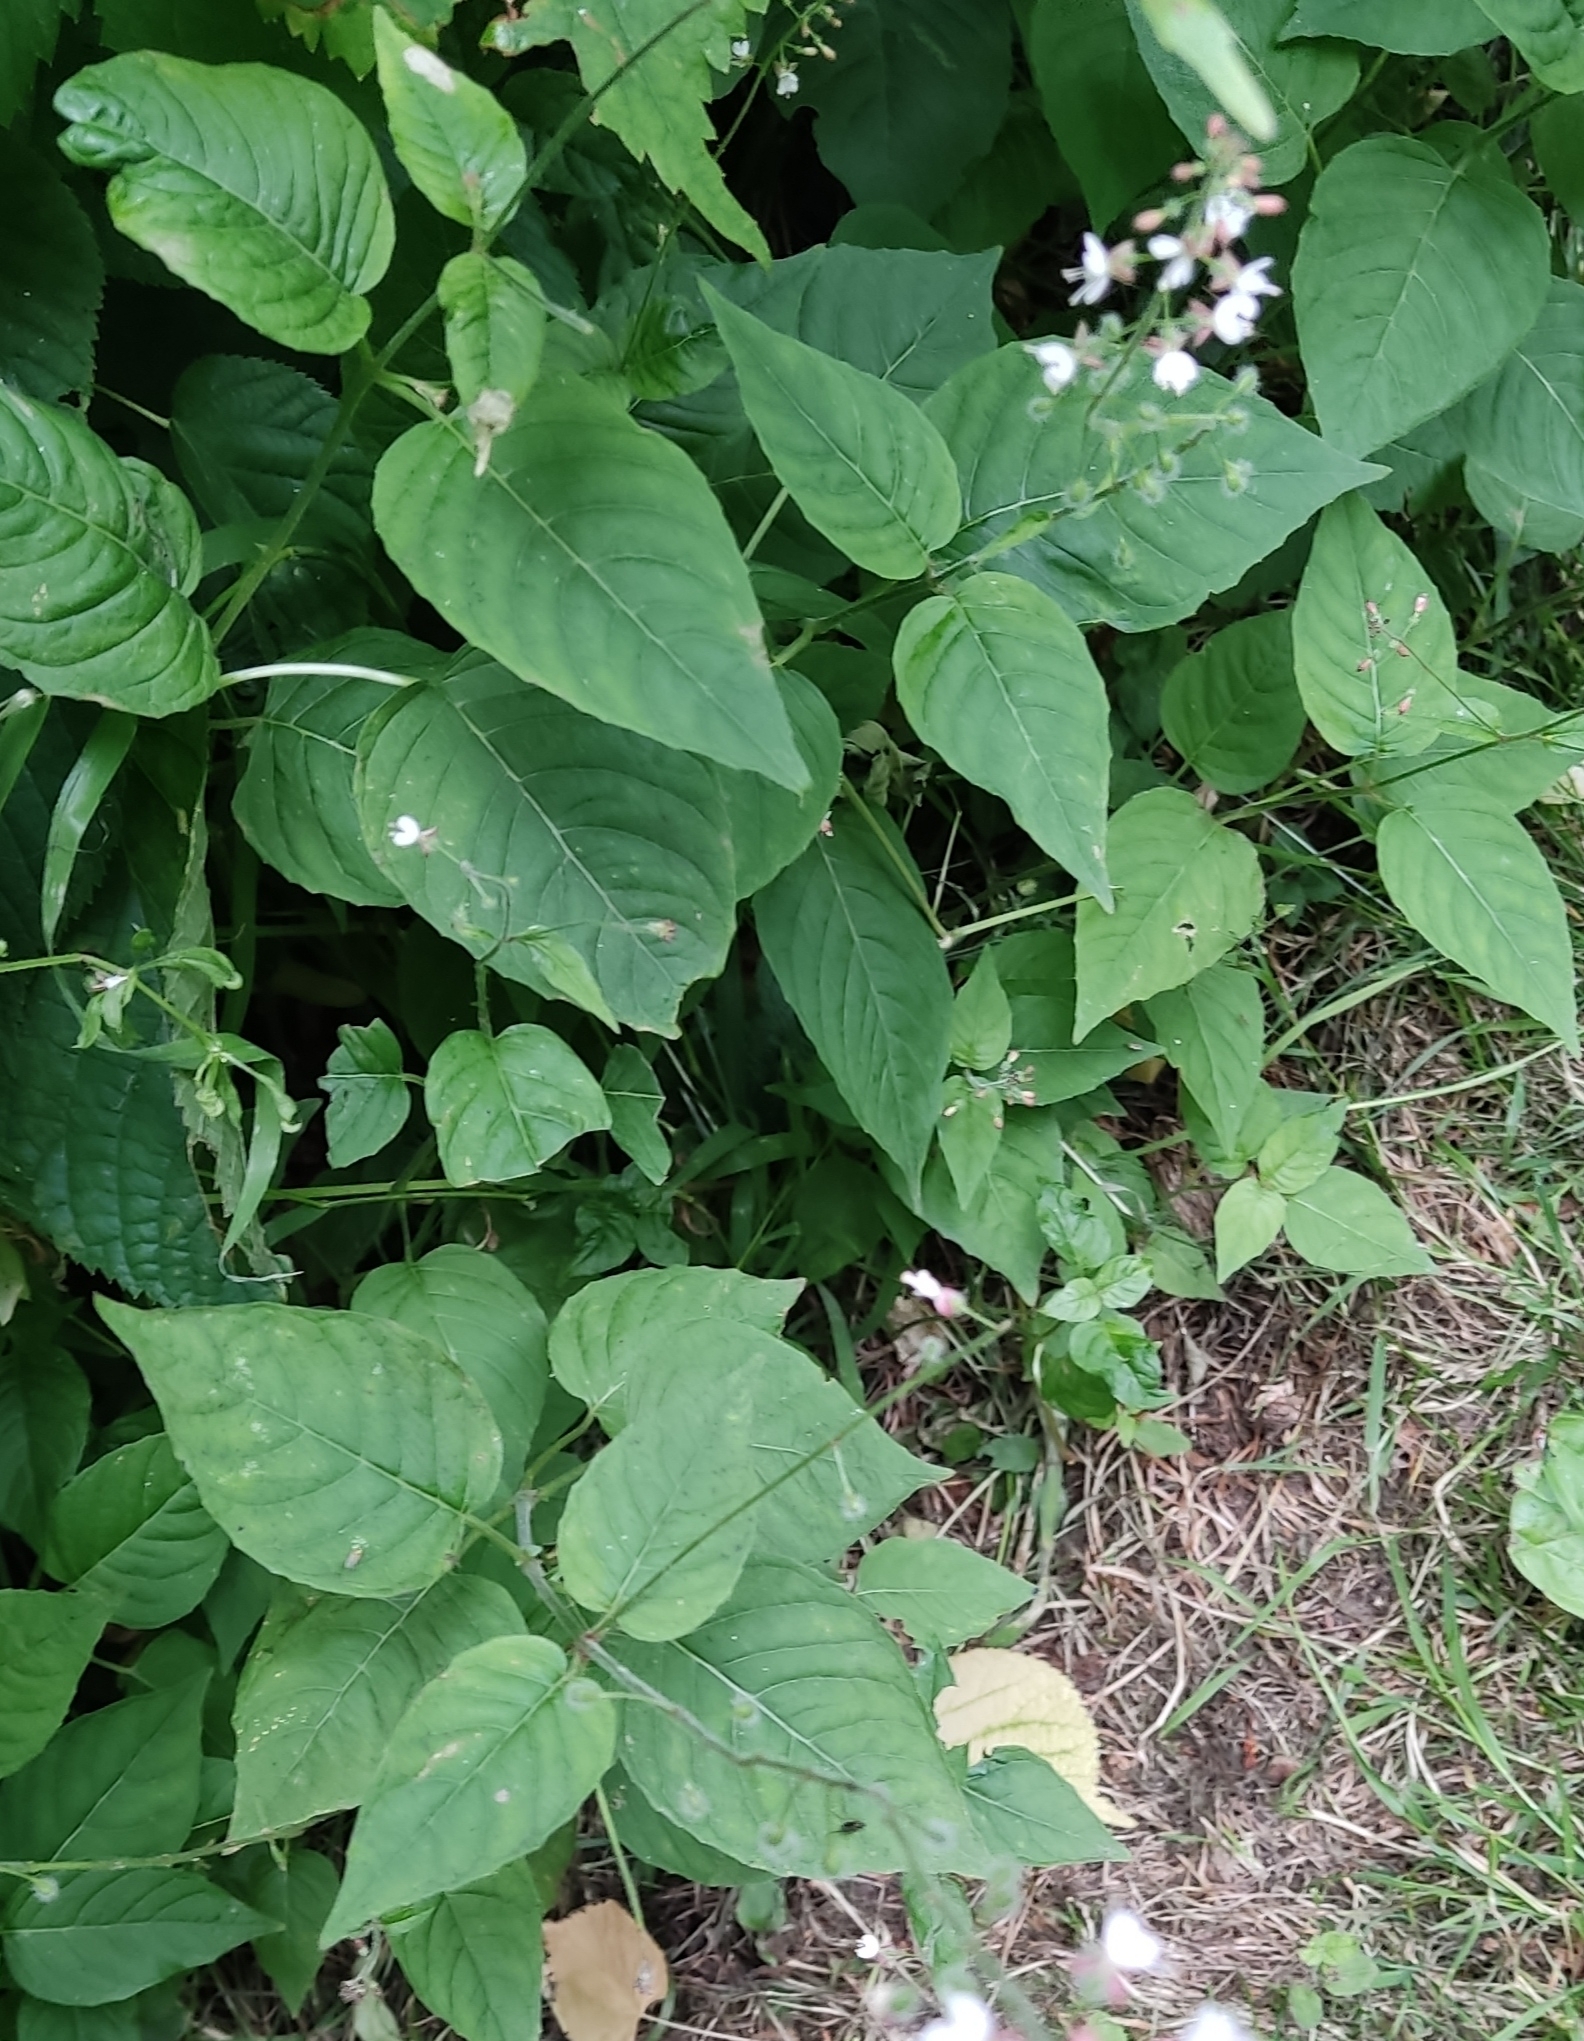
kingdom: Plantae
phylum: Tracheophyta
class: Magnoliopsida
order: Myrtales
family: Onagraceae
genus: Circaea
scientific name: Circaea lutetiana
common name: Enchanter's-nightshade
